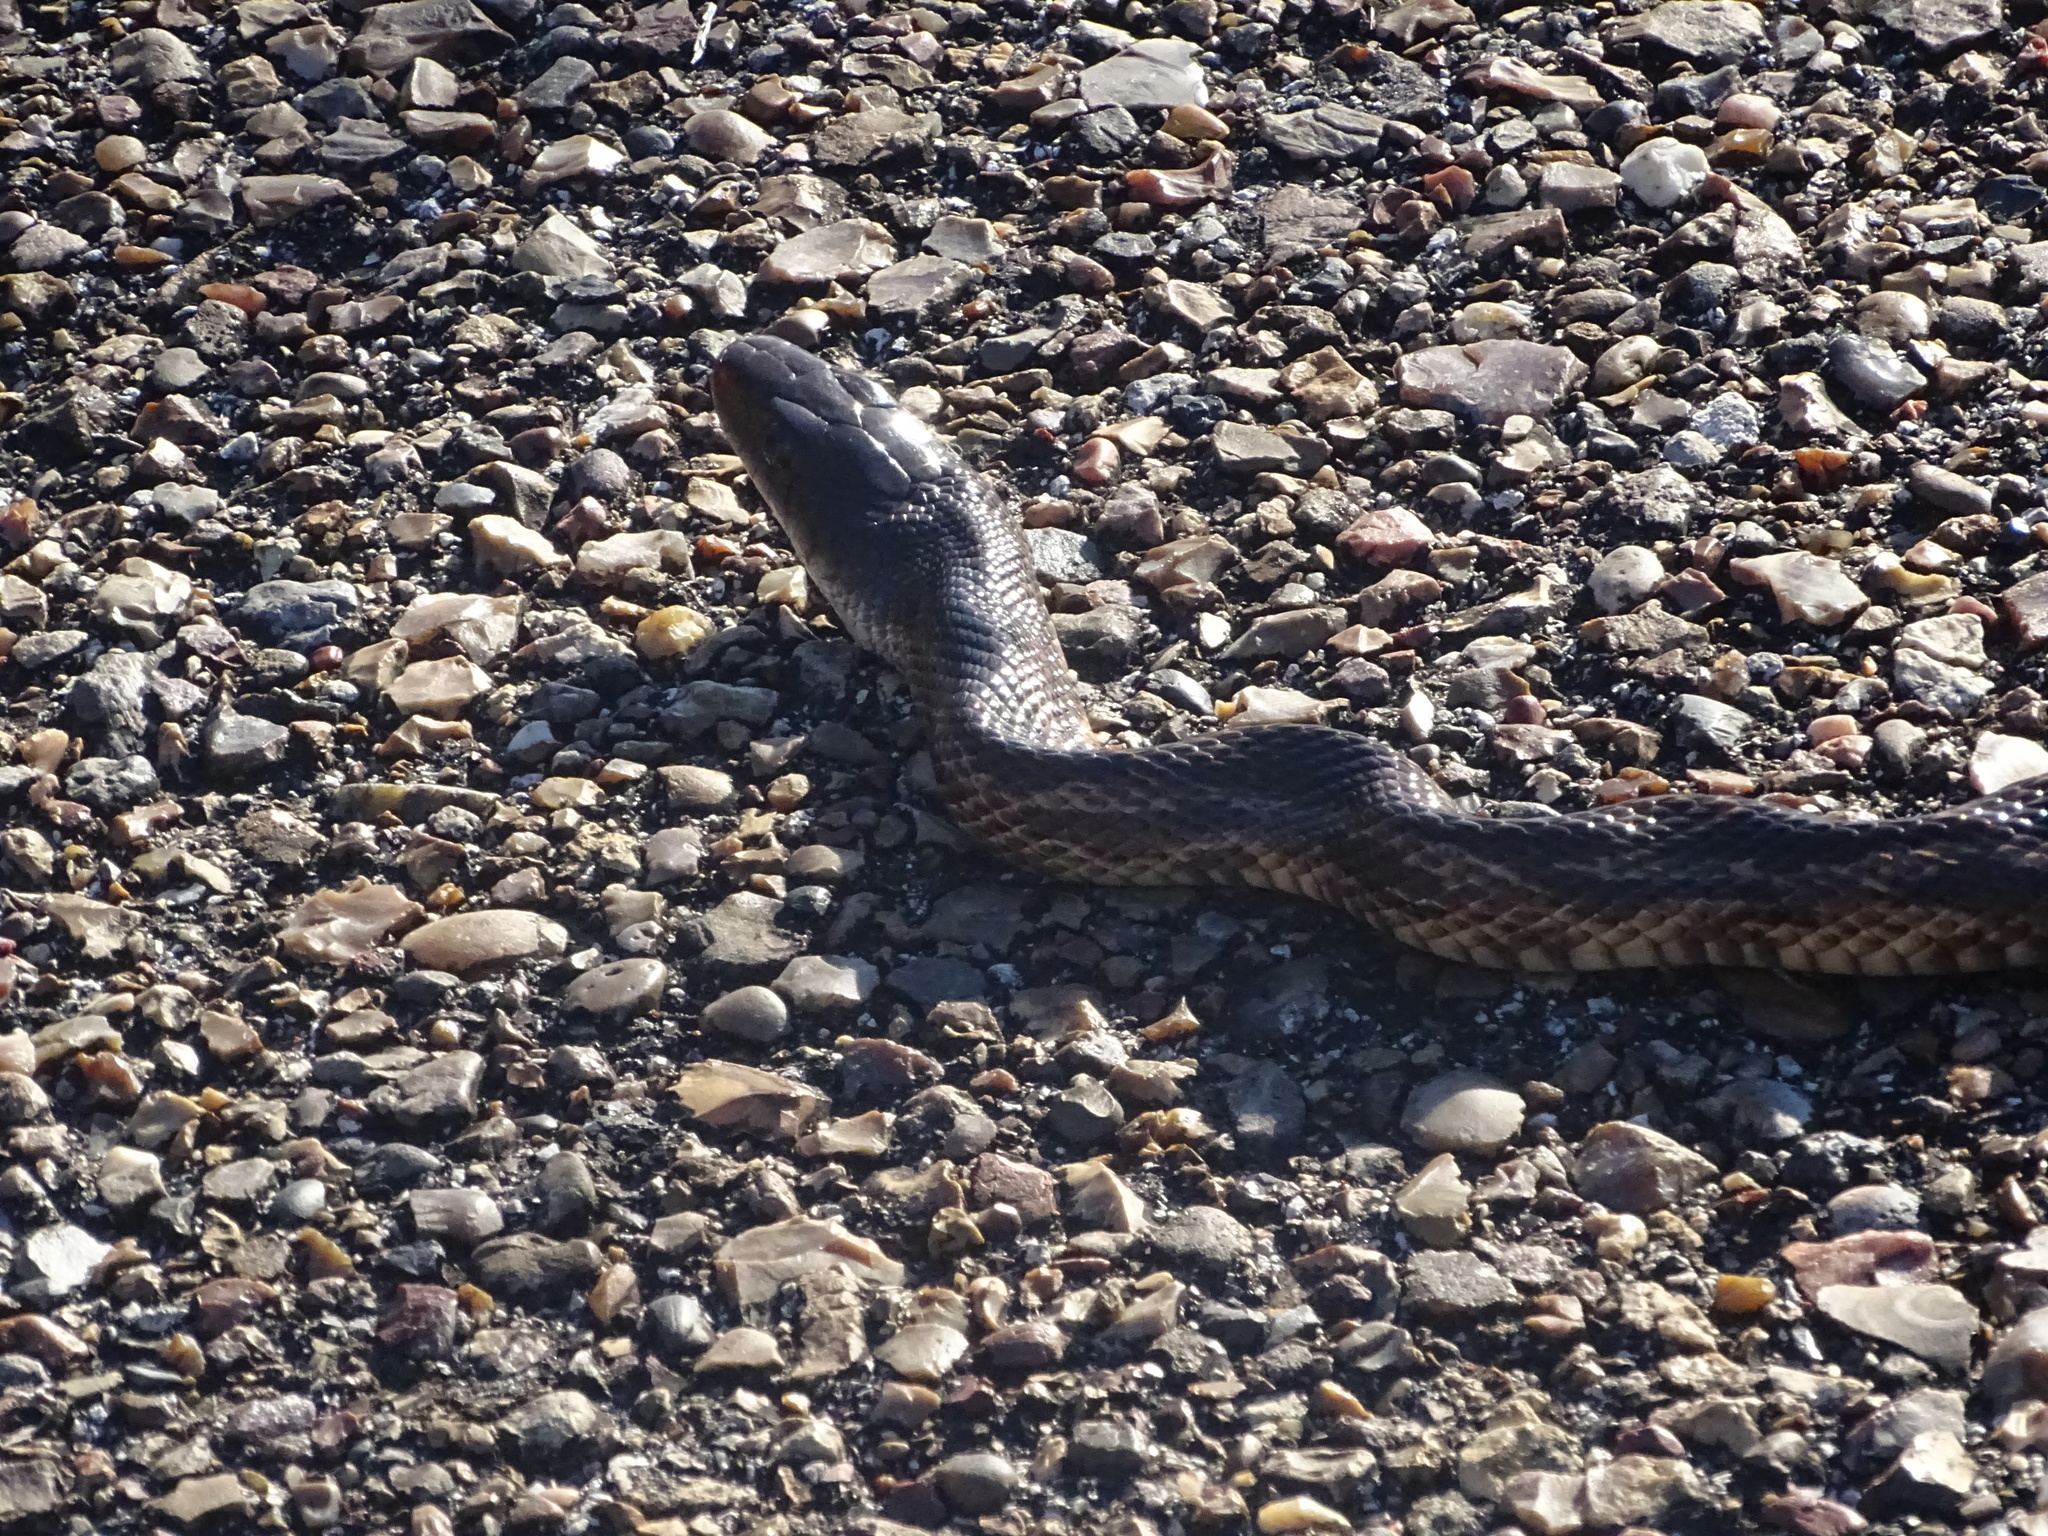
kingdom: Animalia
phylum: Chordata
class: Squamata
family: Colubridae
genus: Pantherophis
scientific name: Pantherophis obsoletus
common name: Black rat snake
